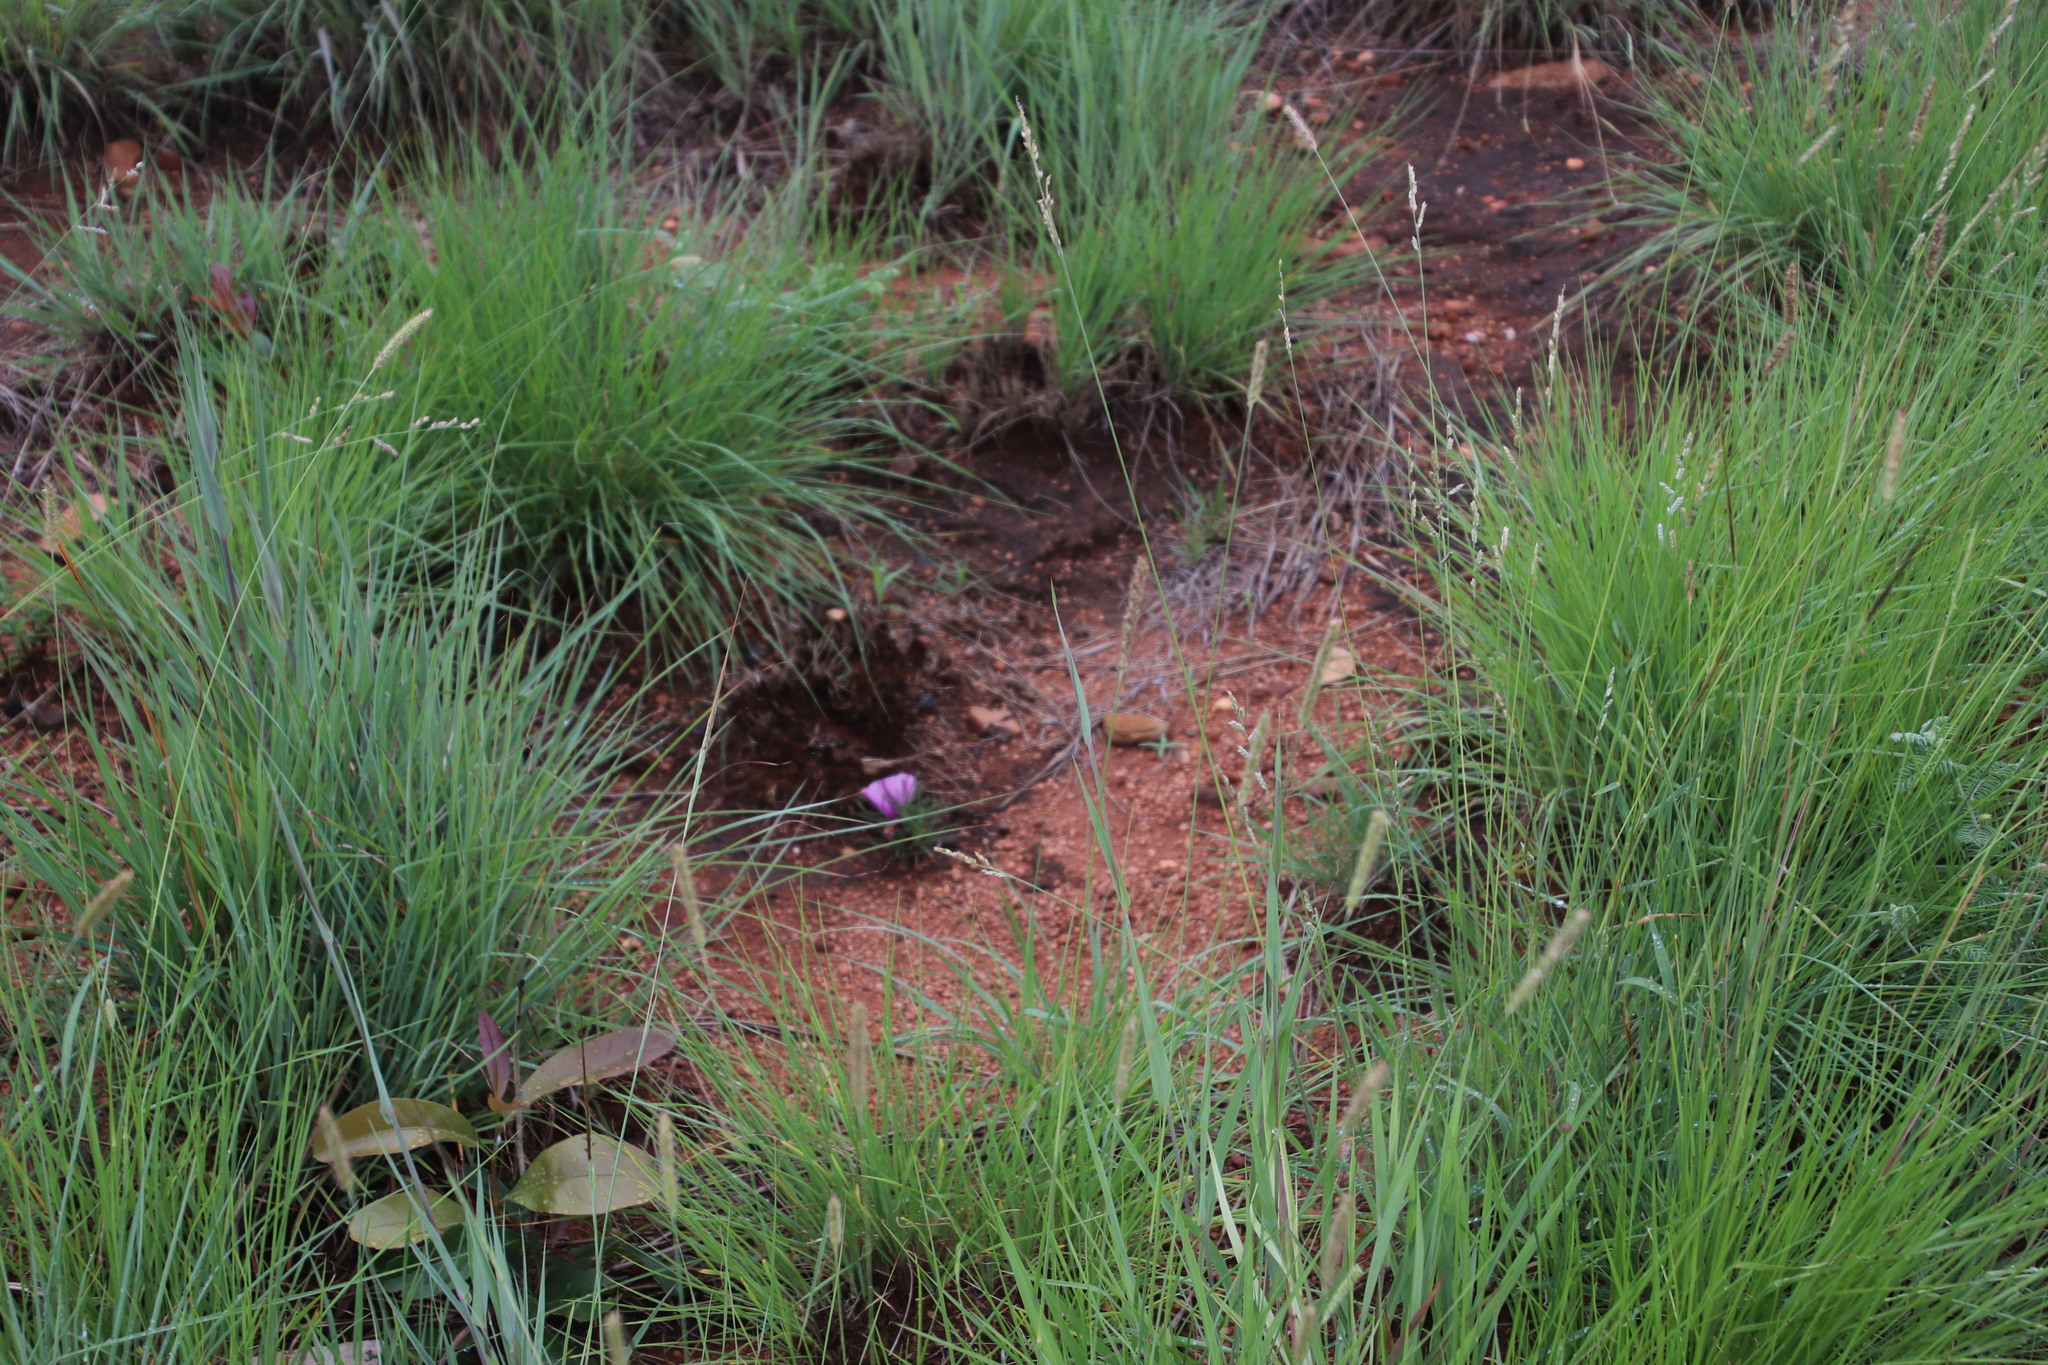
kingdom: Plantae
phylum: Tracheophyta
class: Magnoliopsida
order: Solanales
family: Convolvulaceae
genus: Ipomoea
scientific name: Ipomoea bolusiana
